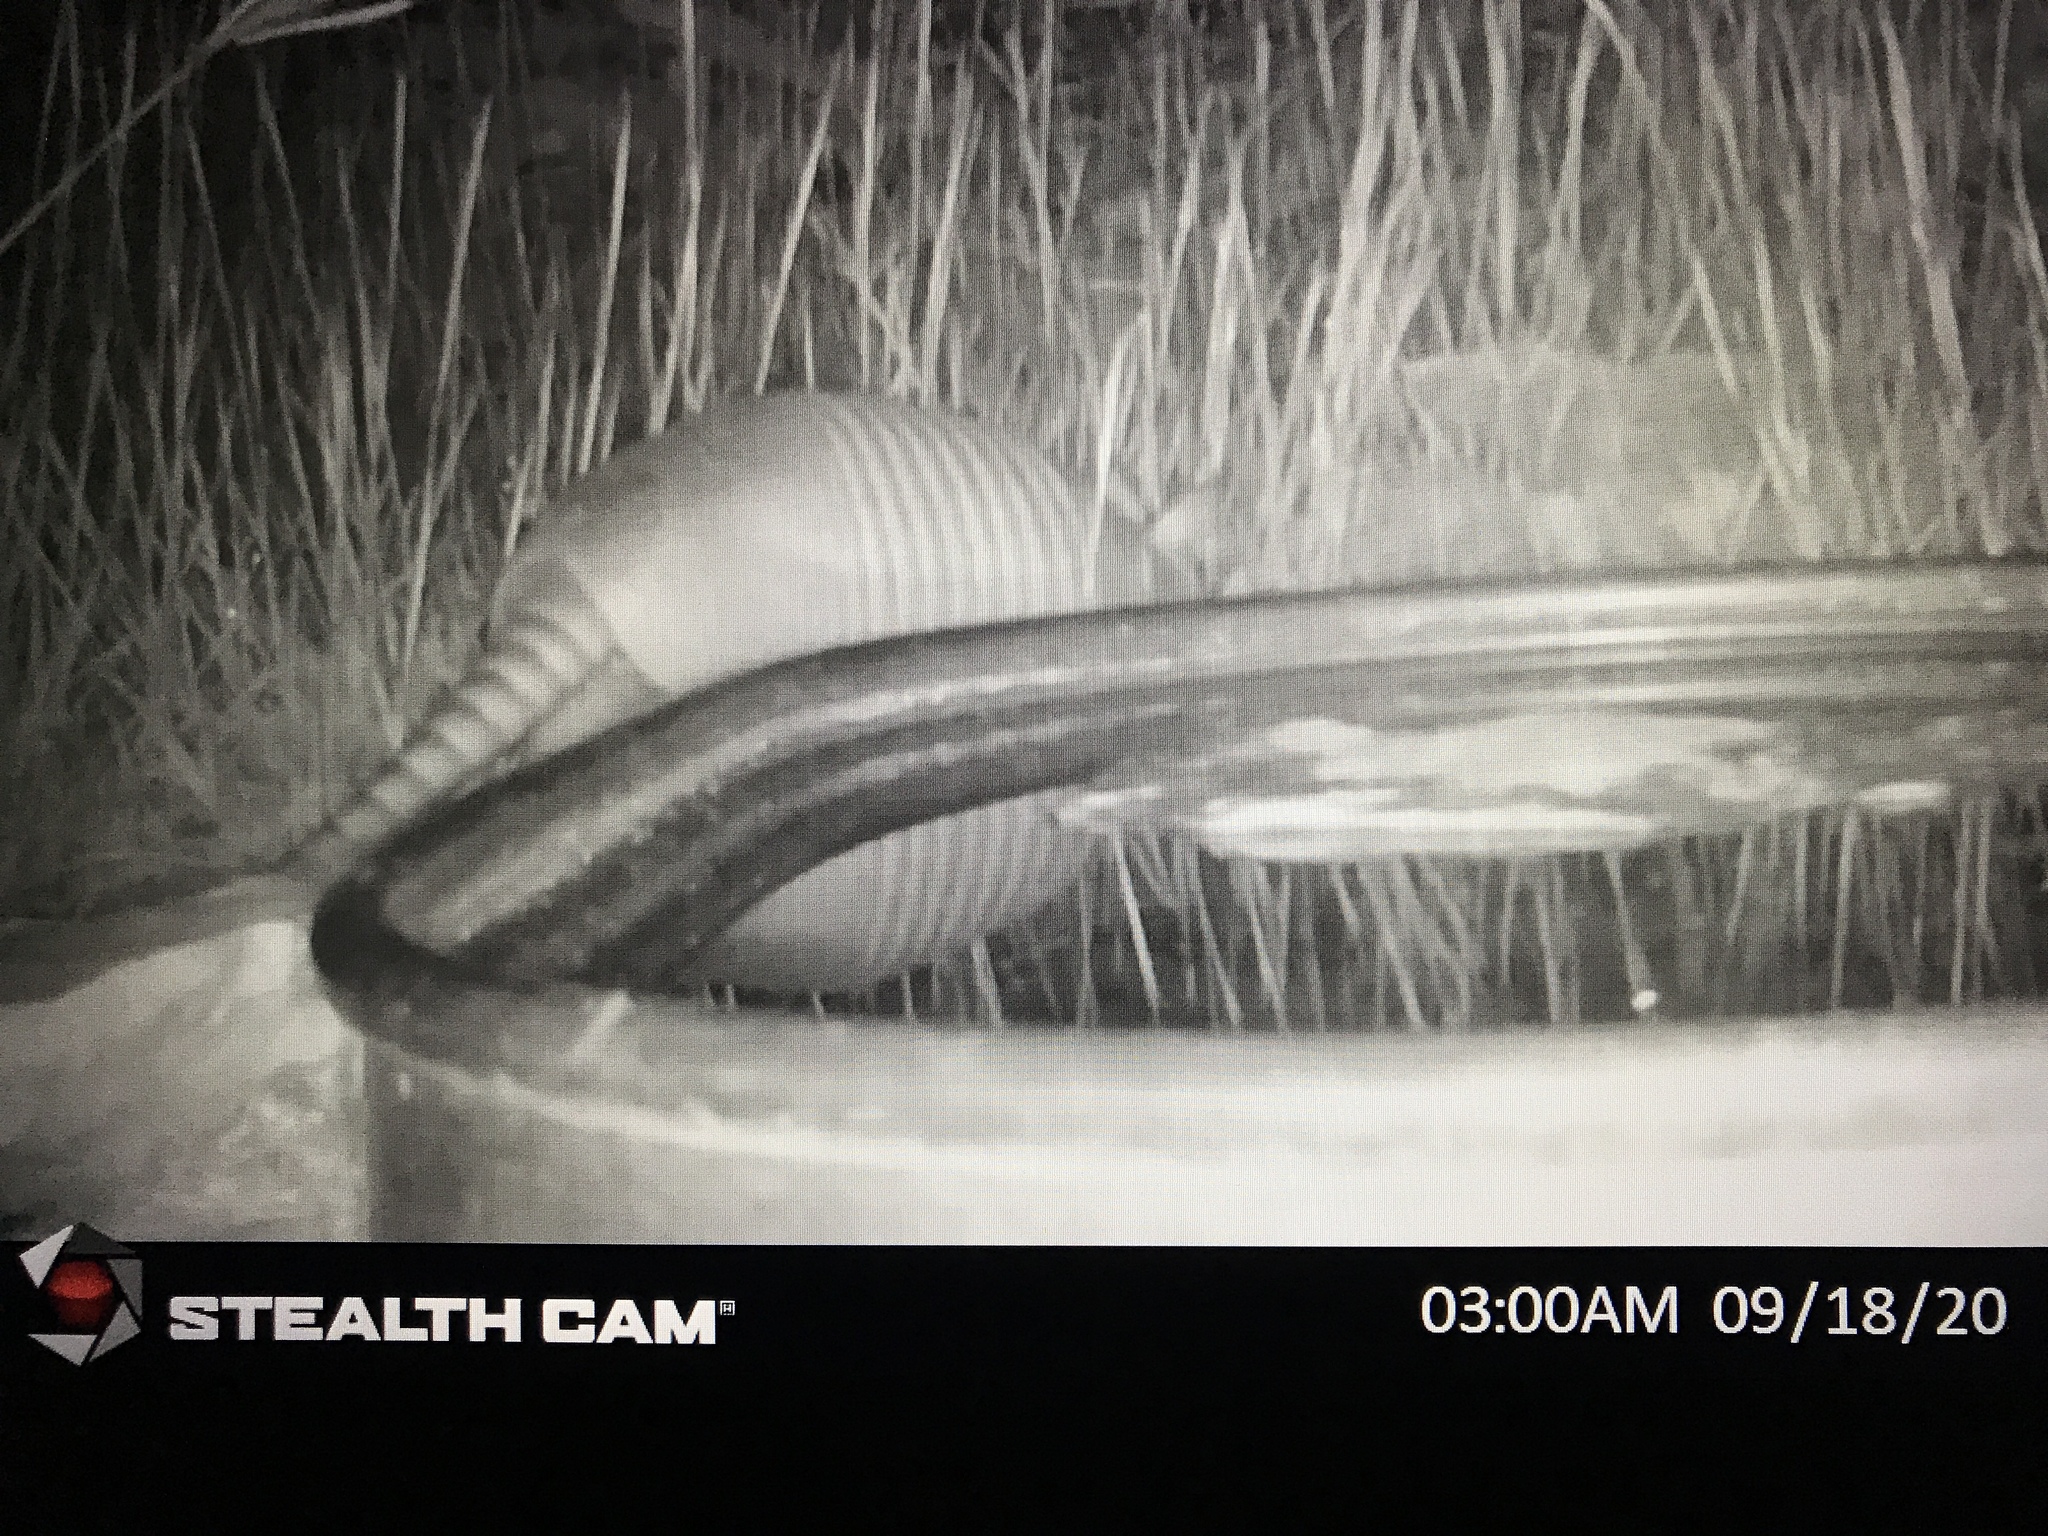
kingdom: Animalia
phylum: Chordata
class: Mammalia
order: Cingulata
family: Dasypodidae
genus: Dasypus
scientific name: Dasypus novemcinctus
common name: Nine-banded armadillo
